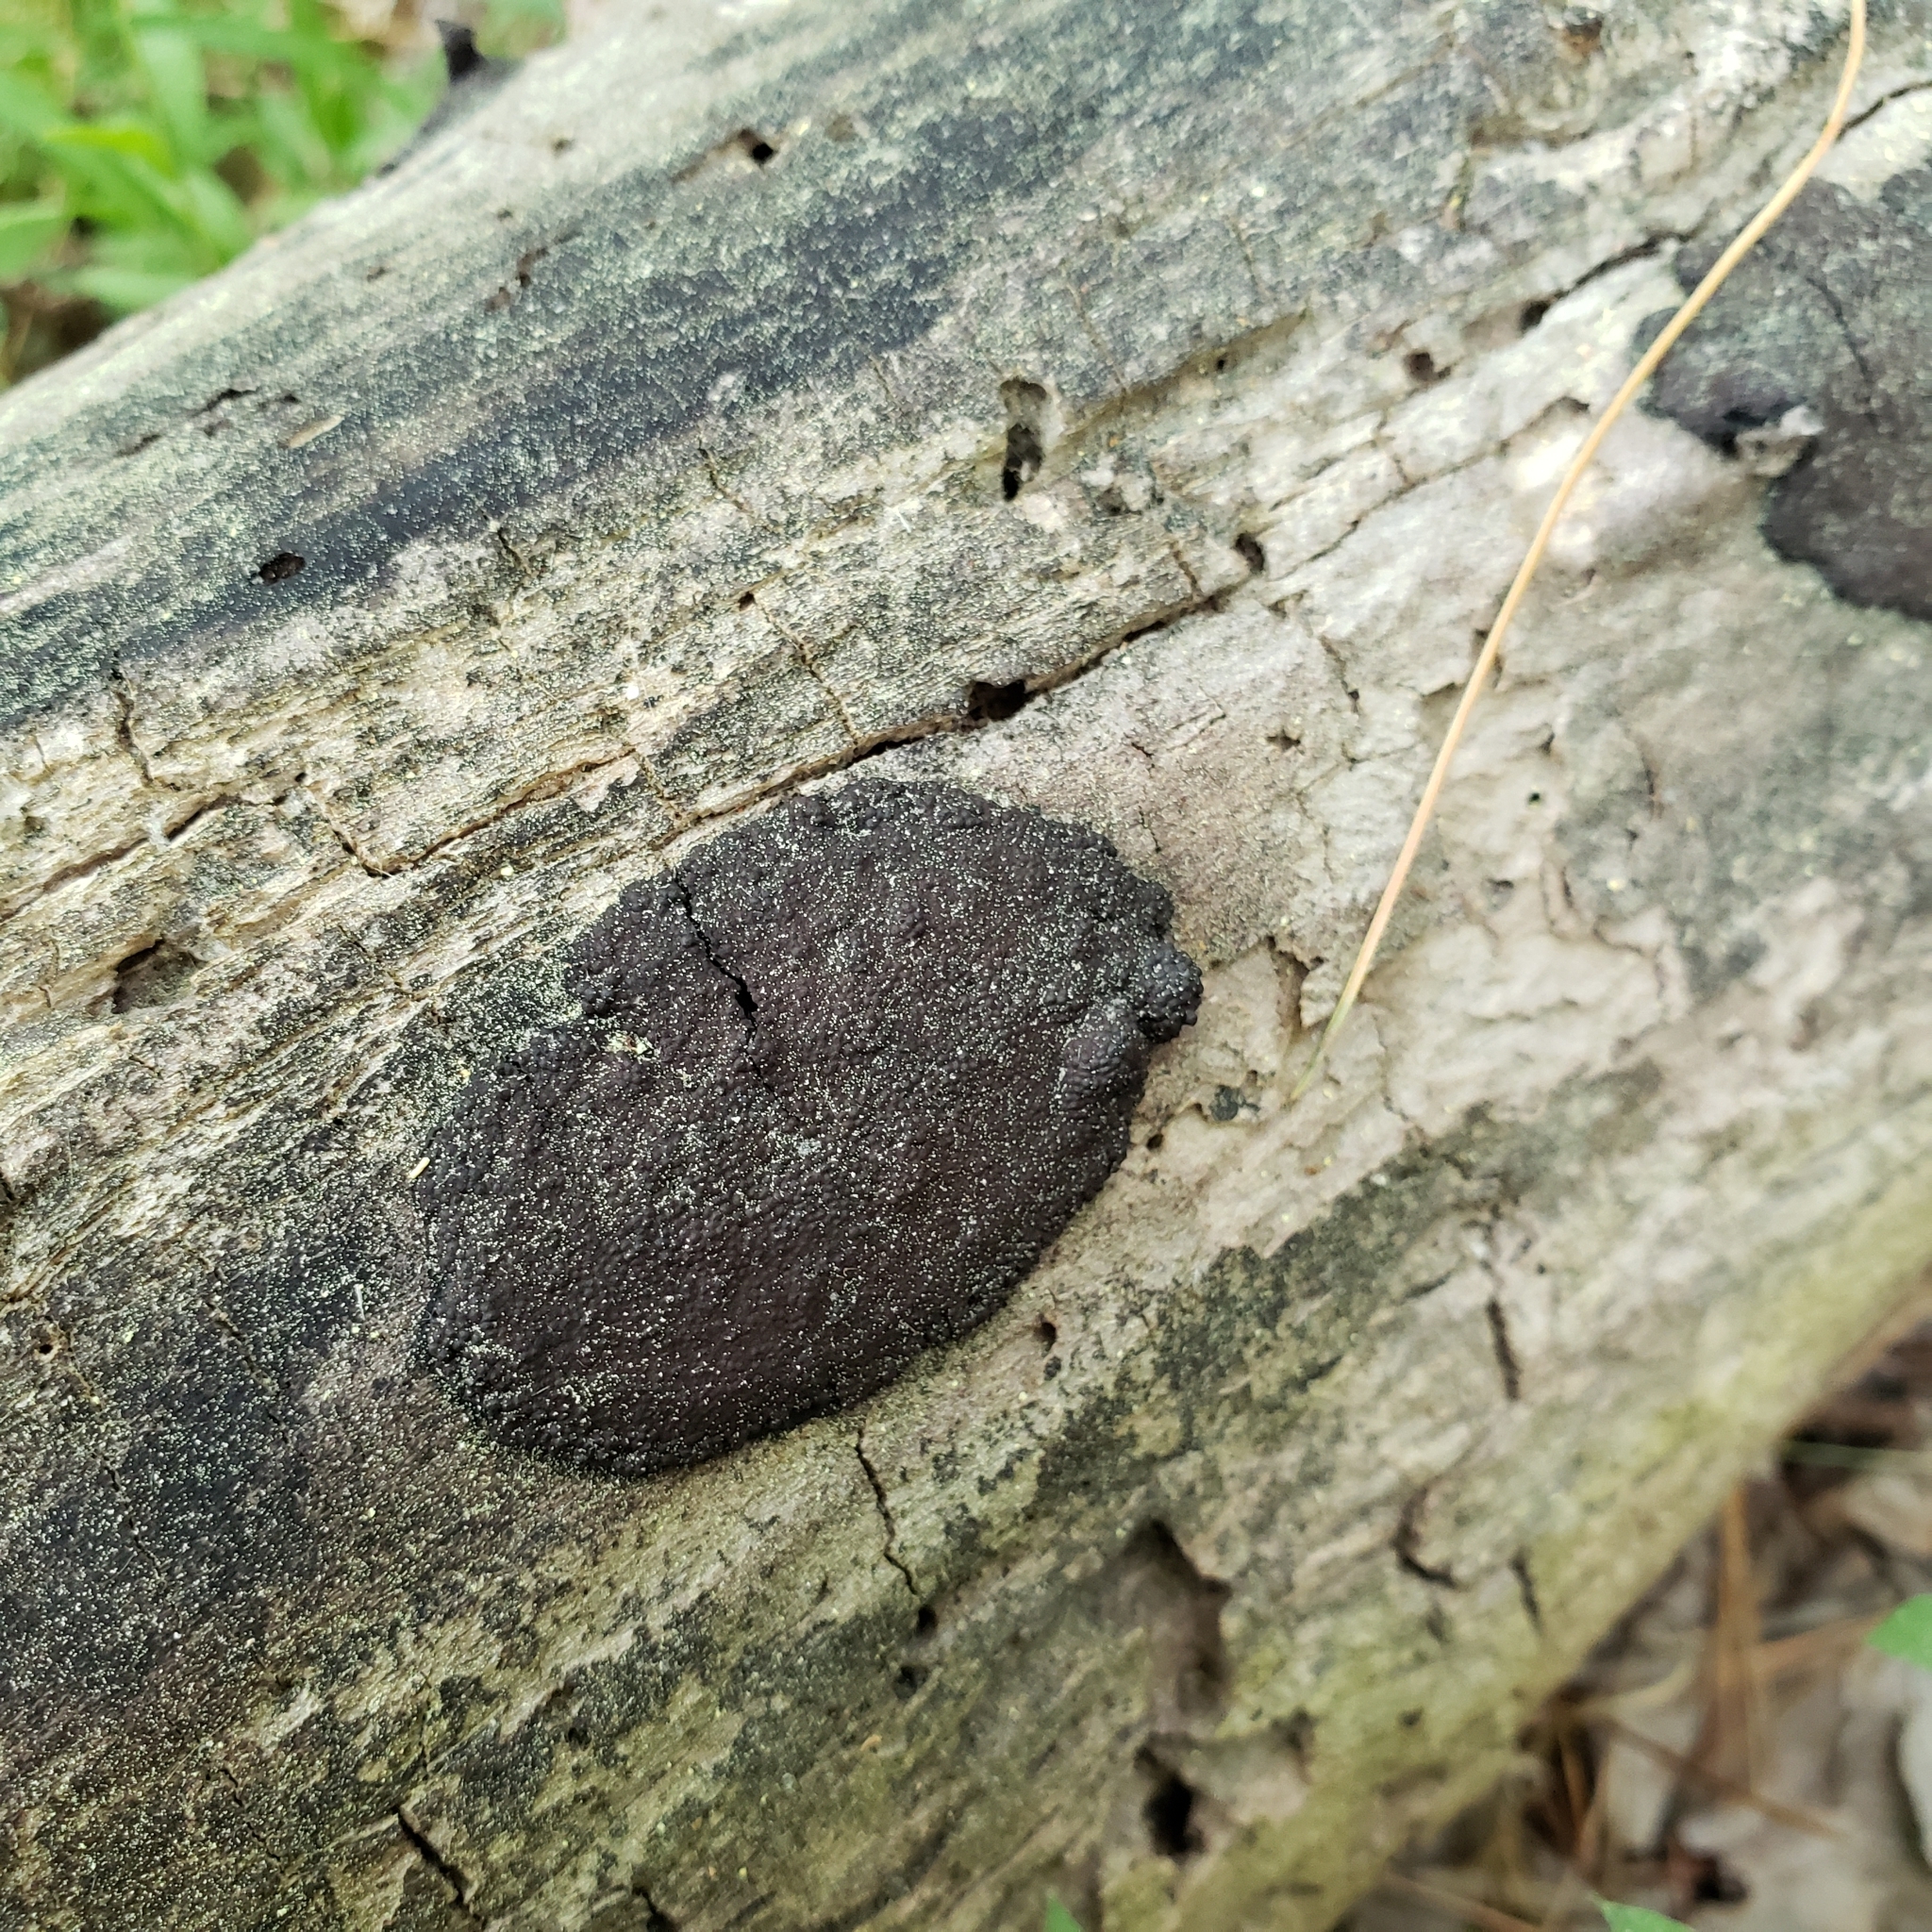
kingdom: Fungi
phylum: Ascomycota
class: Sordariomycetes
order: Xylariales
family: Diatrypaceae
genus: Diatrype
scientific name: Diatrype stigma
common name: Common tarcrust
